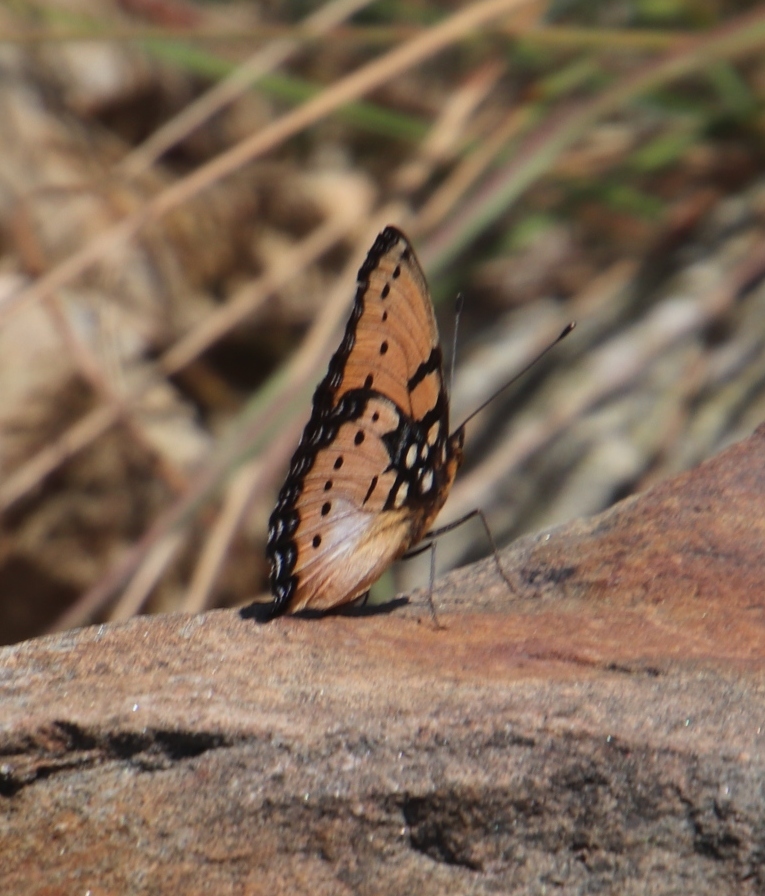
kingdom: Animalia
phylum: Arthropoda
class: Insecta
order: Lepidoptera
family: Nymphalidae
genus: Precis
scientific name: Precis octavia
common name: Gaudy commodore
